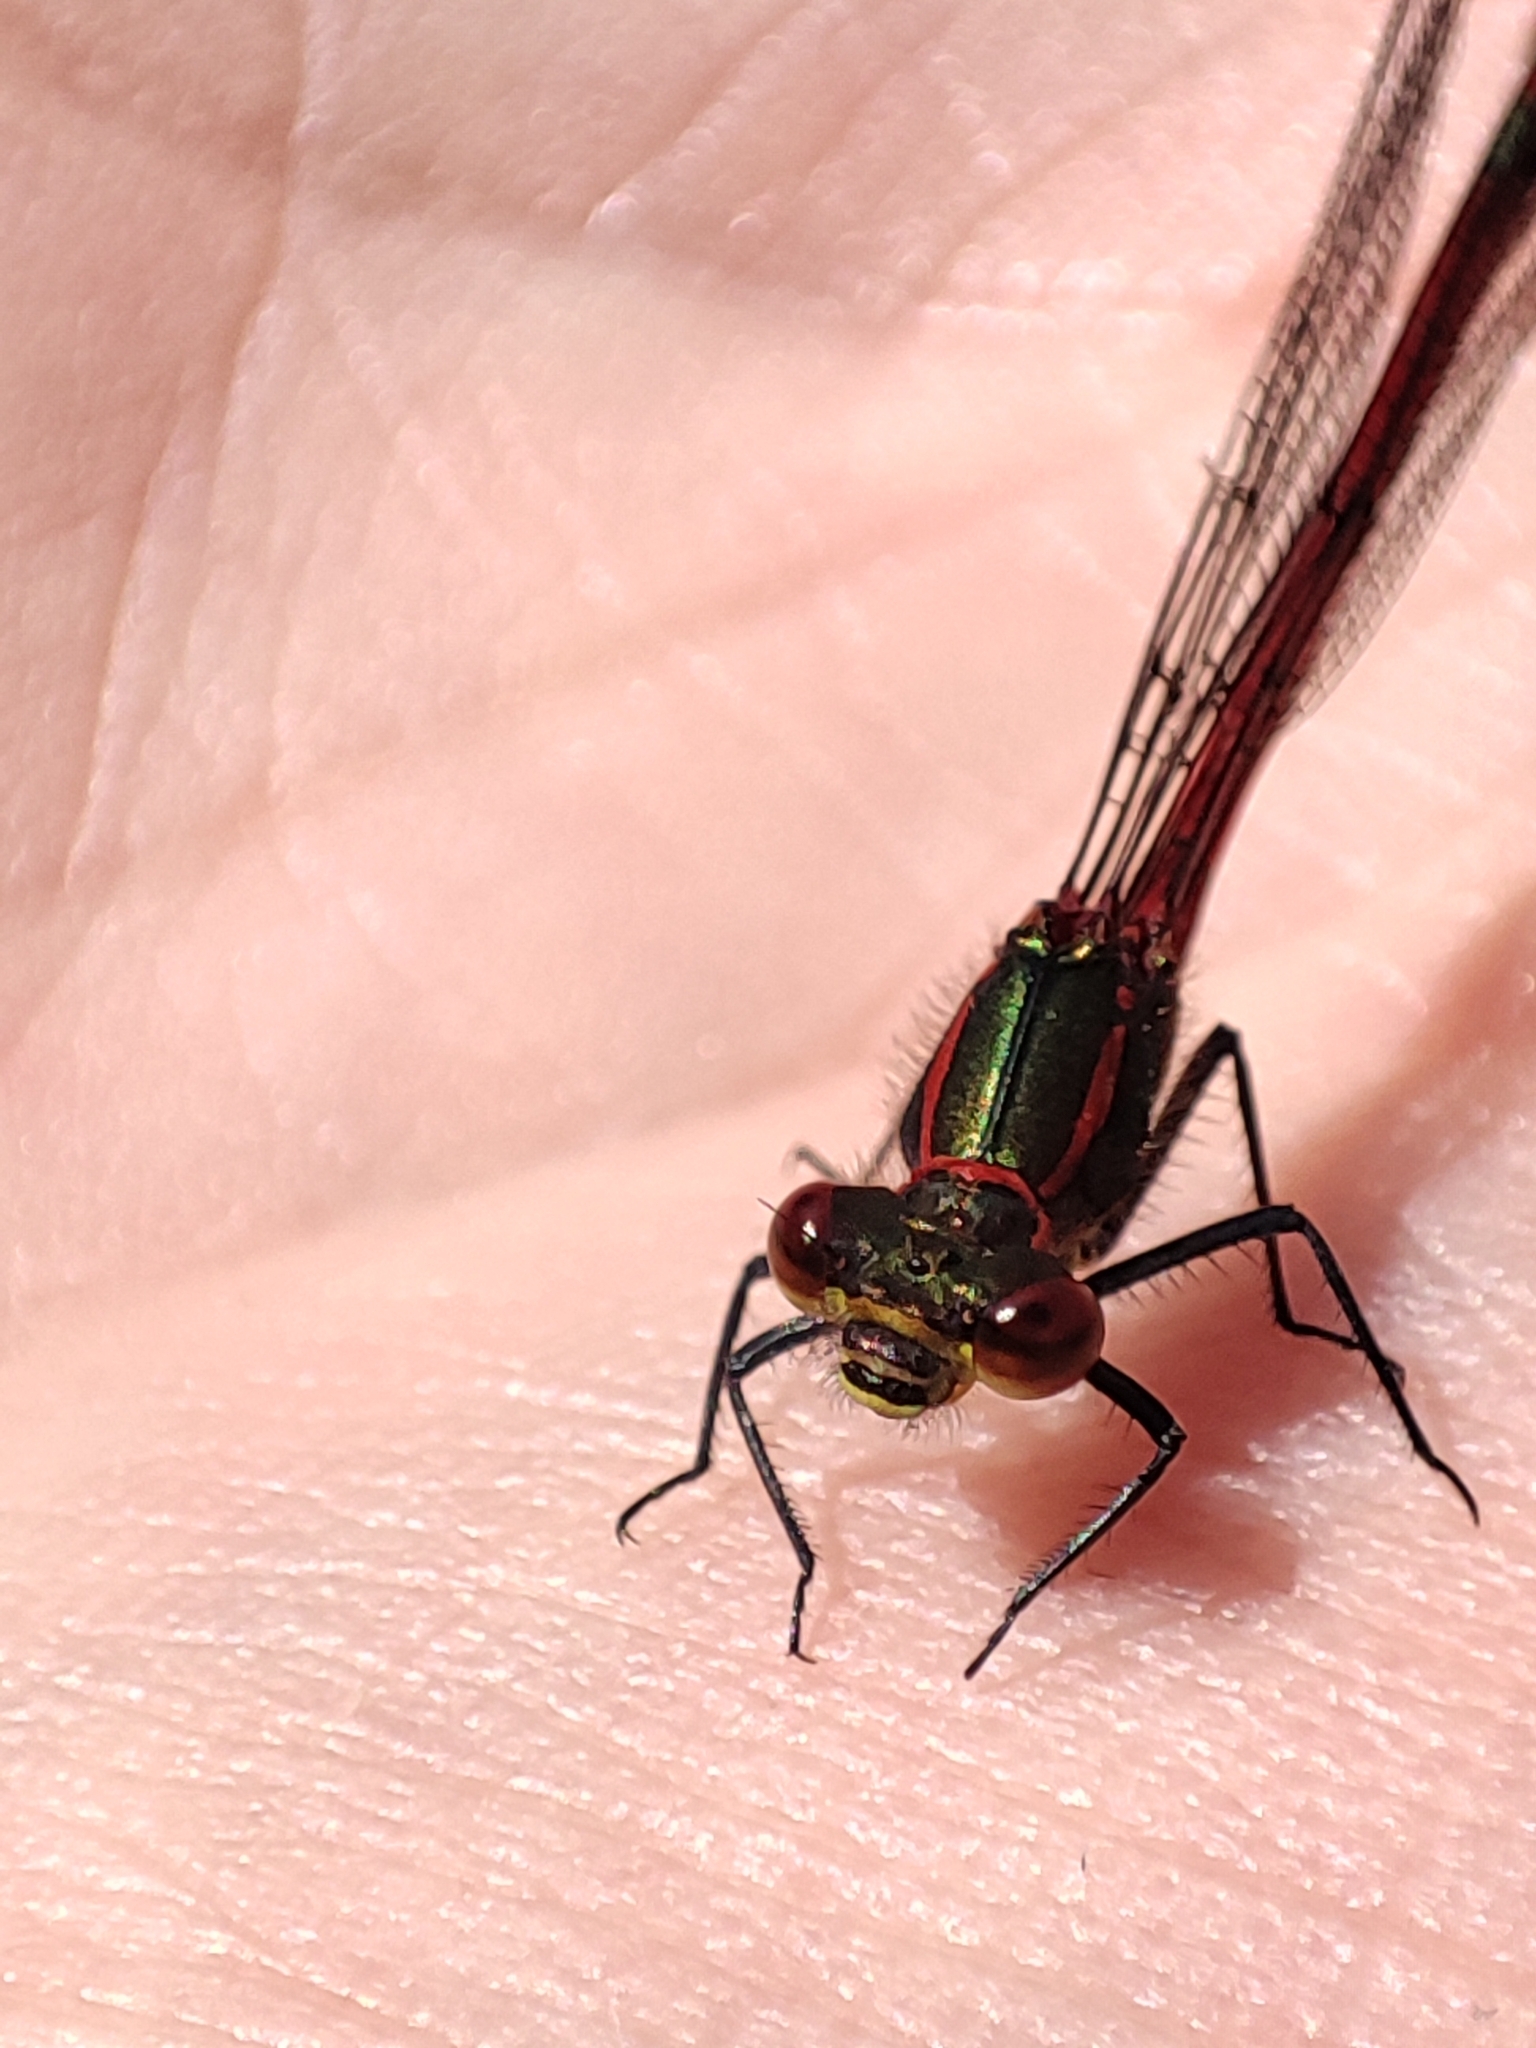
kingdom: Animalia
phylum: Arthropoda
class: Insecta
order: Odonata
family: Coenagrionidae
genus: Pyrrhosoma
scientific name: Pyrrhosoma nymphula
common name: Large red damsel
